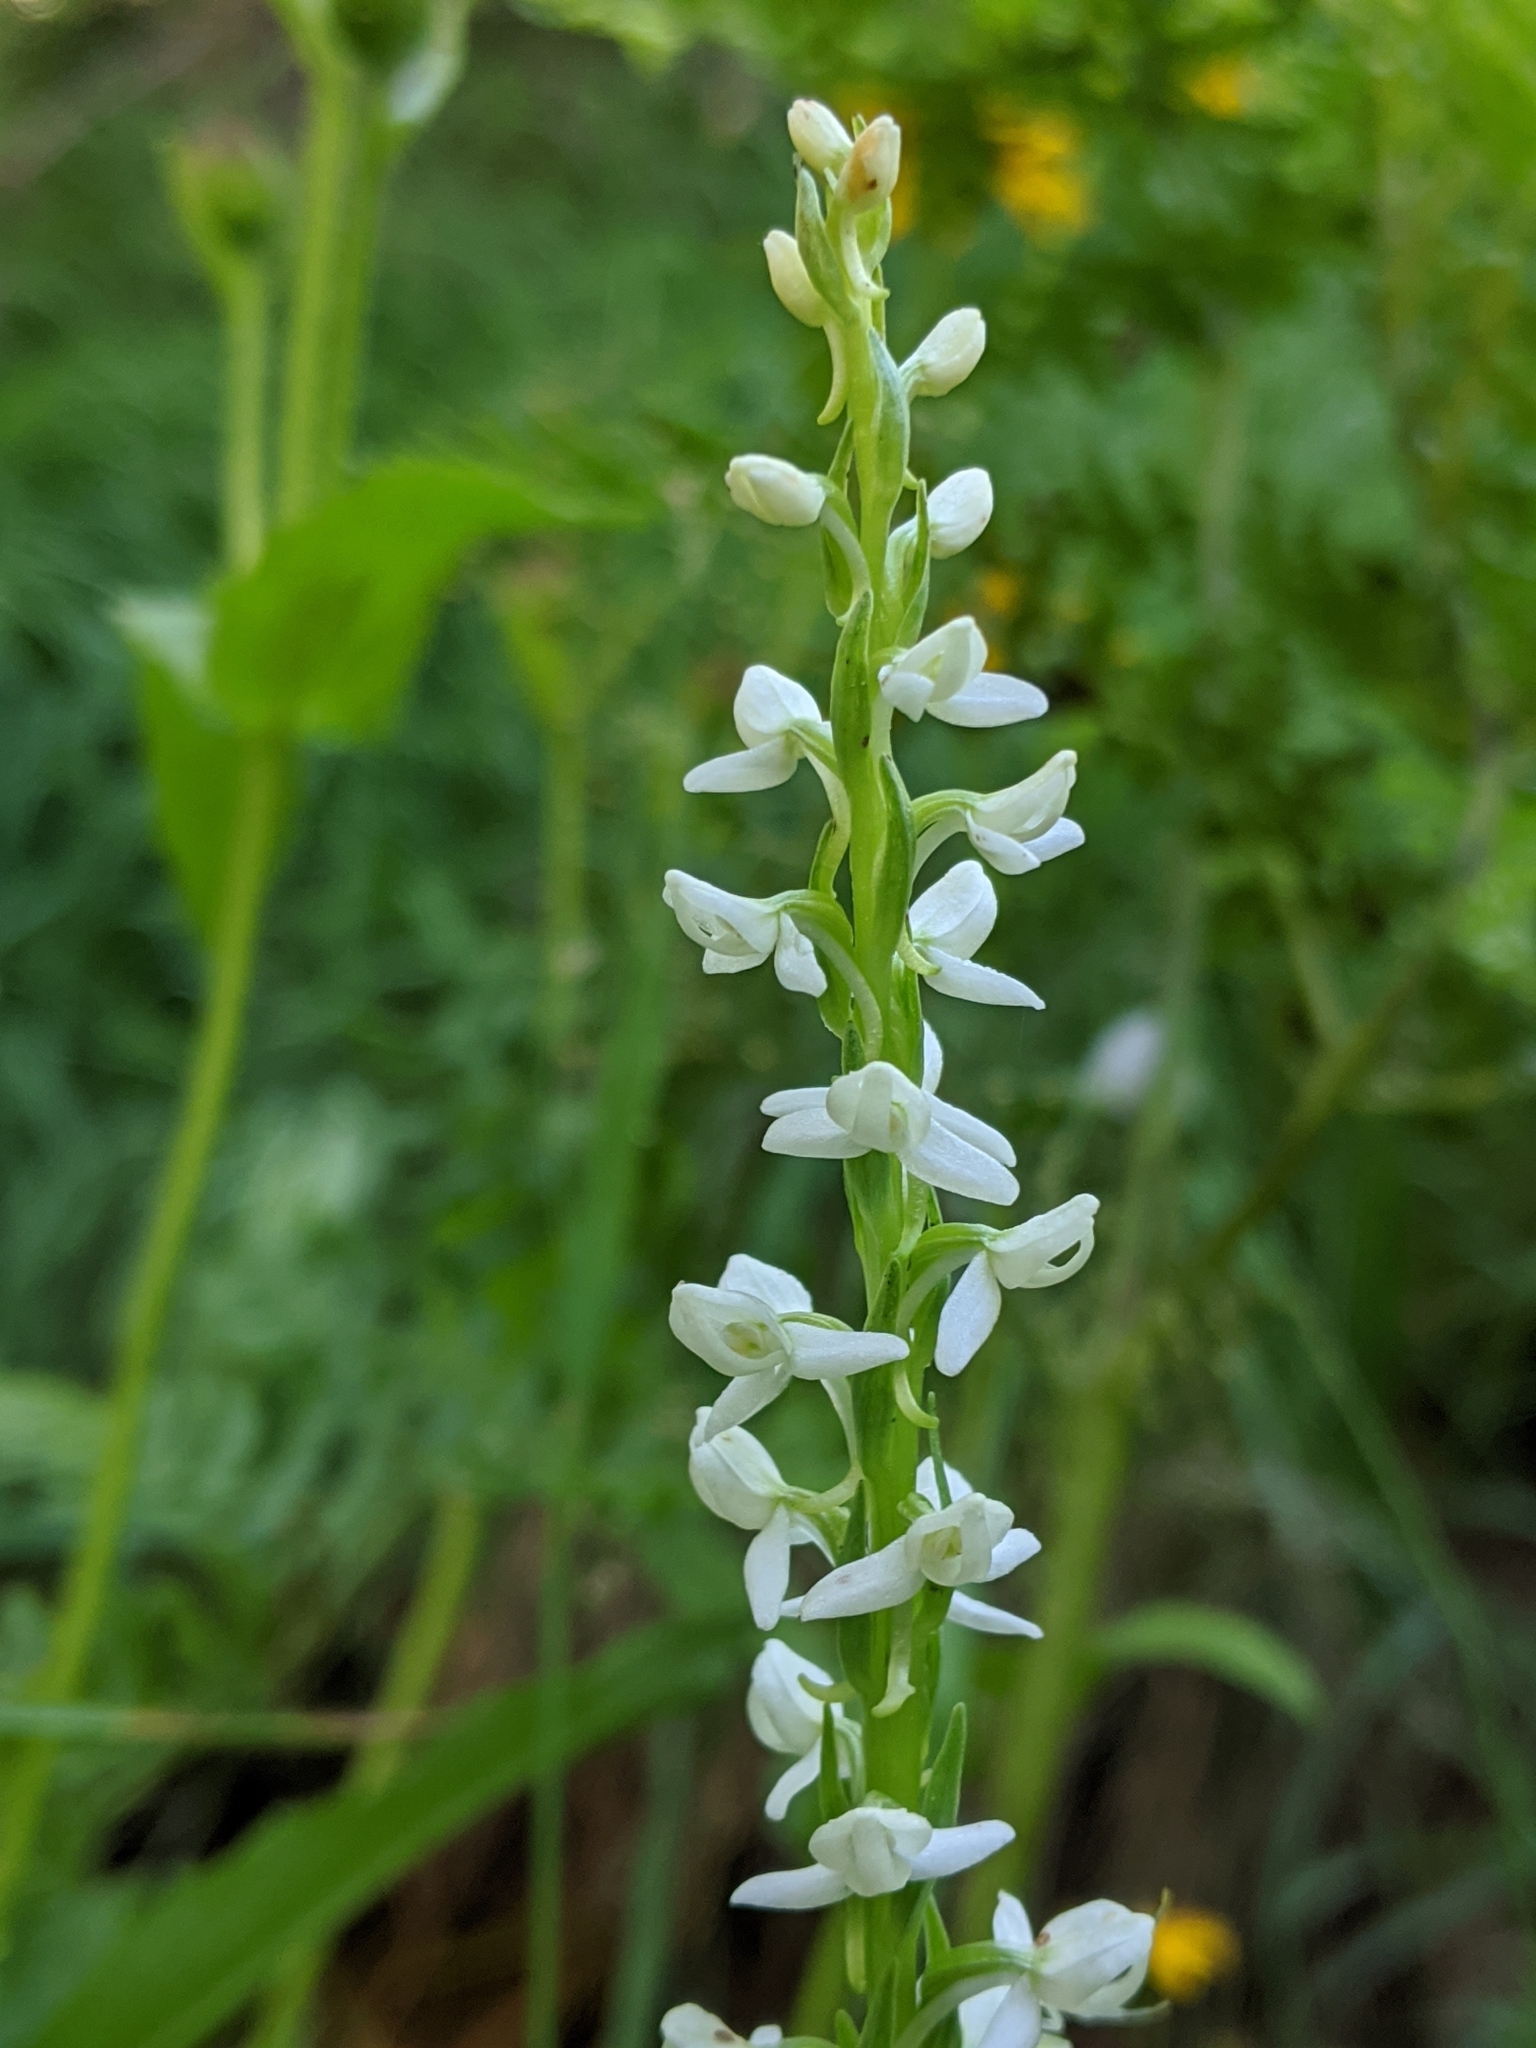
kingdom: Plantae
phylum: Tracheophyta
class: Liliopsida
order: Asparagales
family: Orchidaceae
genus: Platanthera
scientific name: Platanthera dilatata
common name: Bog candles
